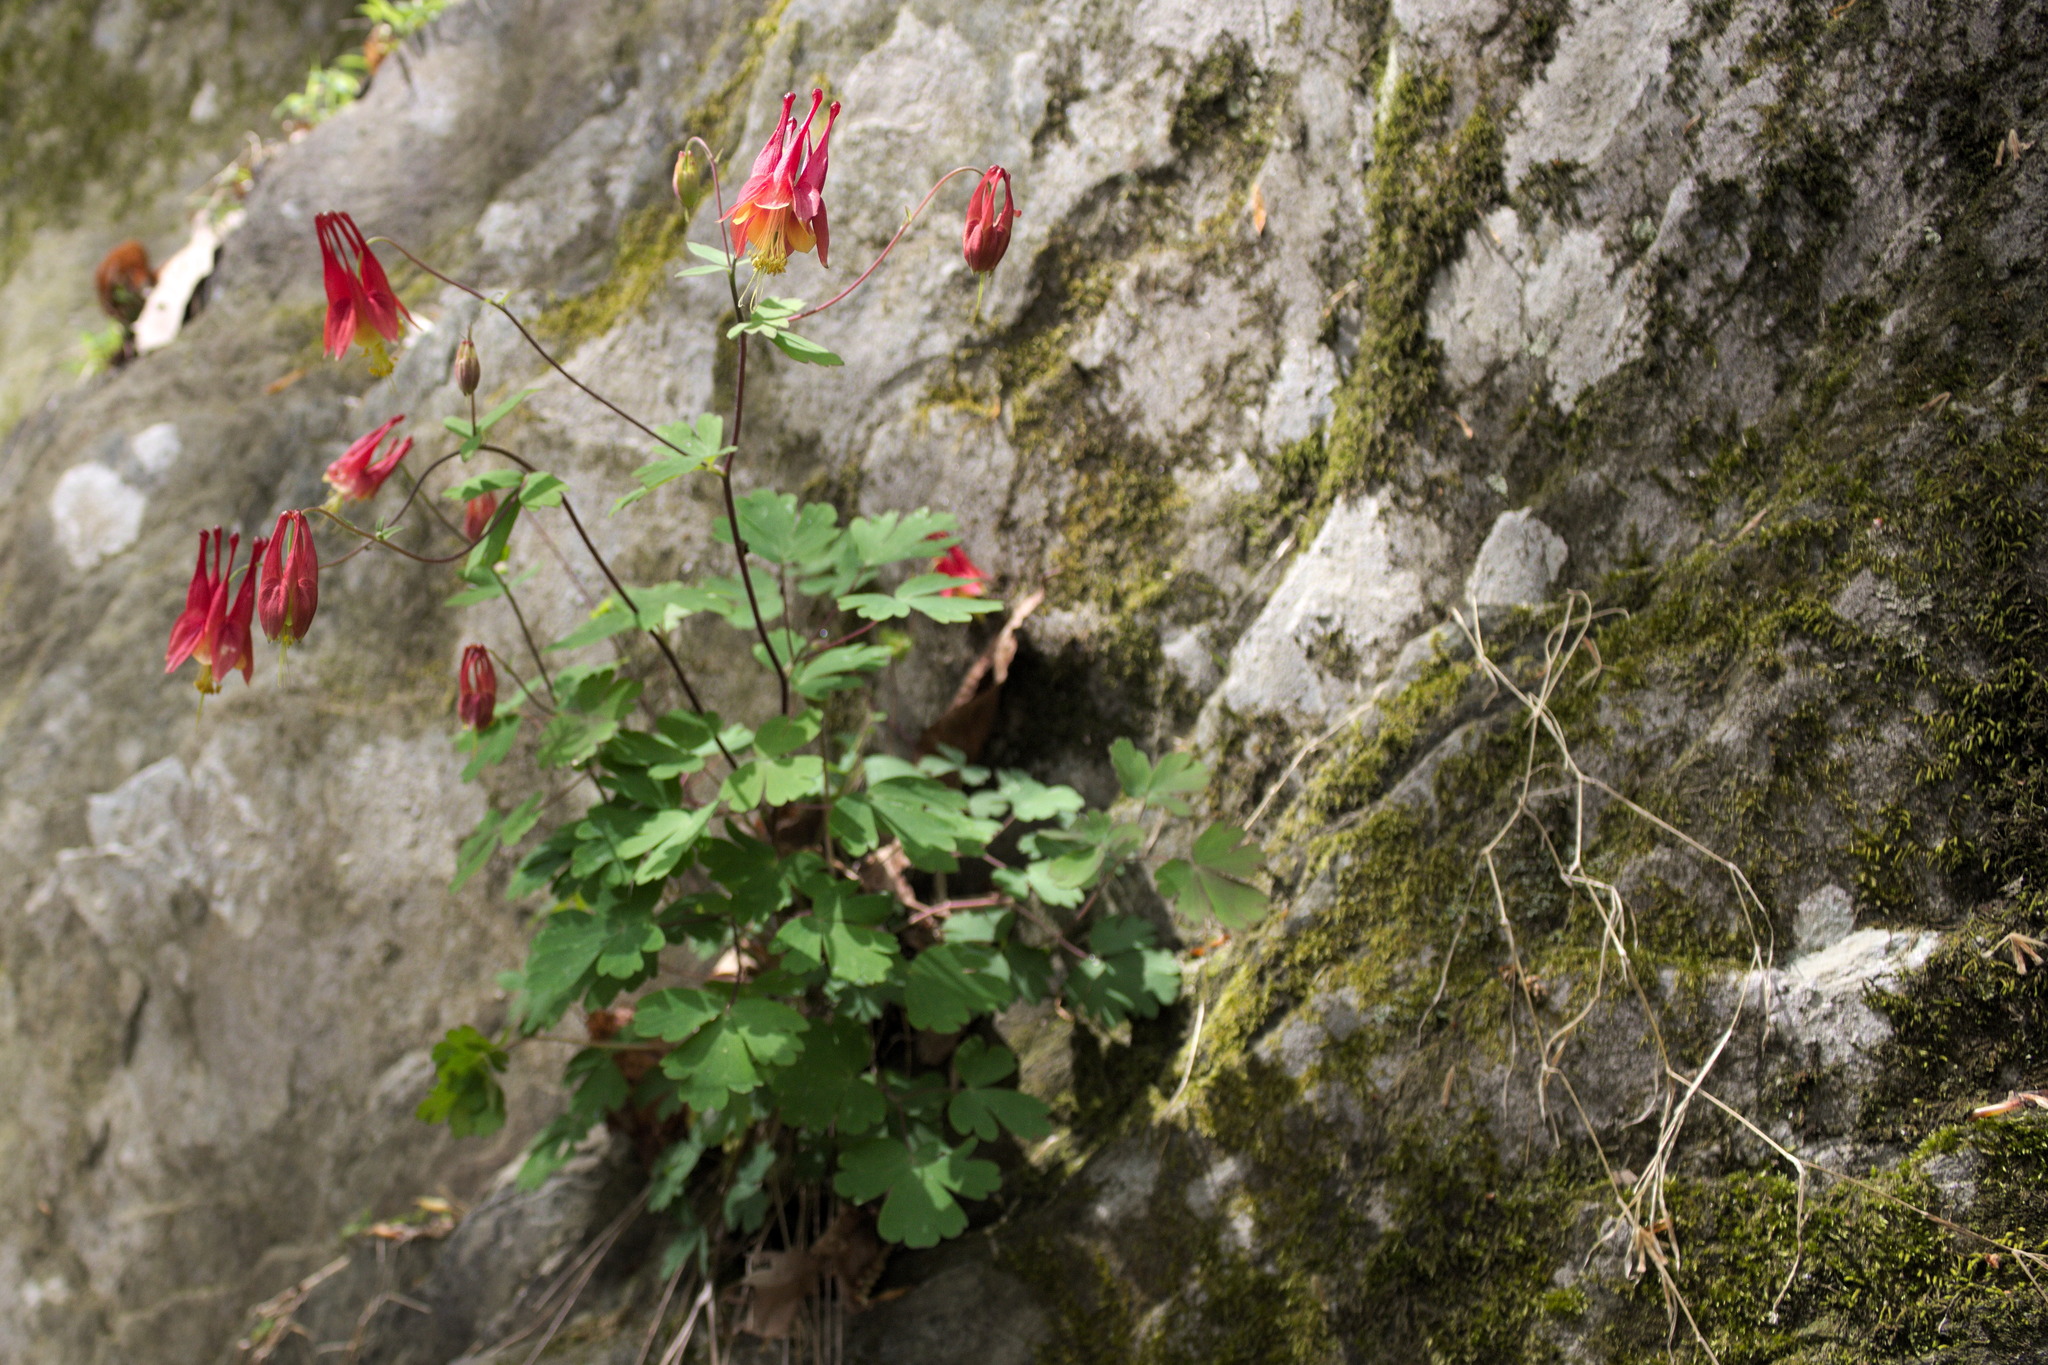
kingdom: Plantae
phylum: Tracheophyta
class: Magnoliopsida
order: Ranunculales
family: Ranunculaceae
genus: Aquilegia
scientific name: Aquilegia canadensis
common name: American columbine
